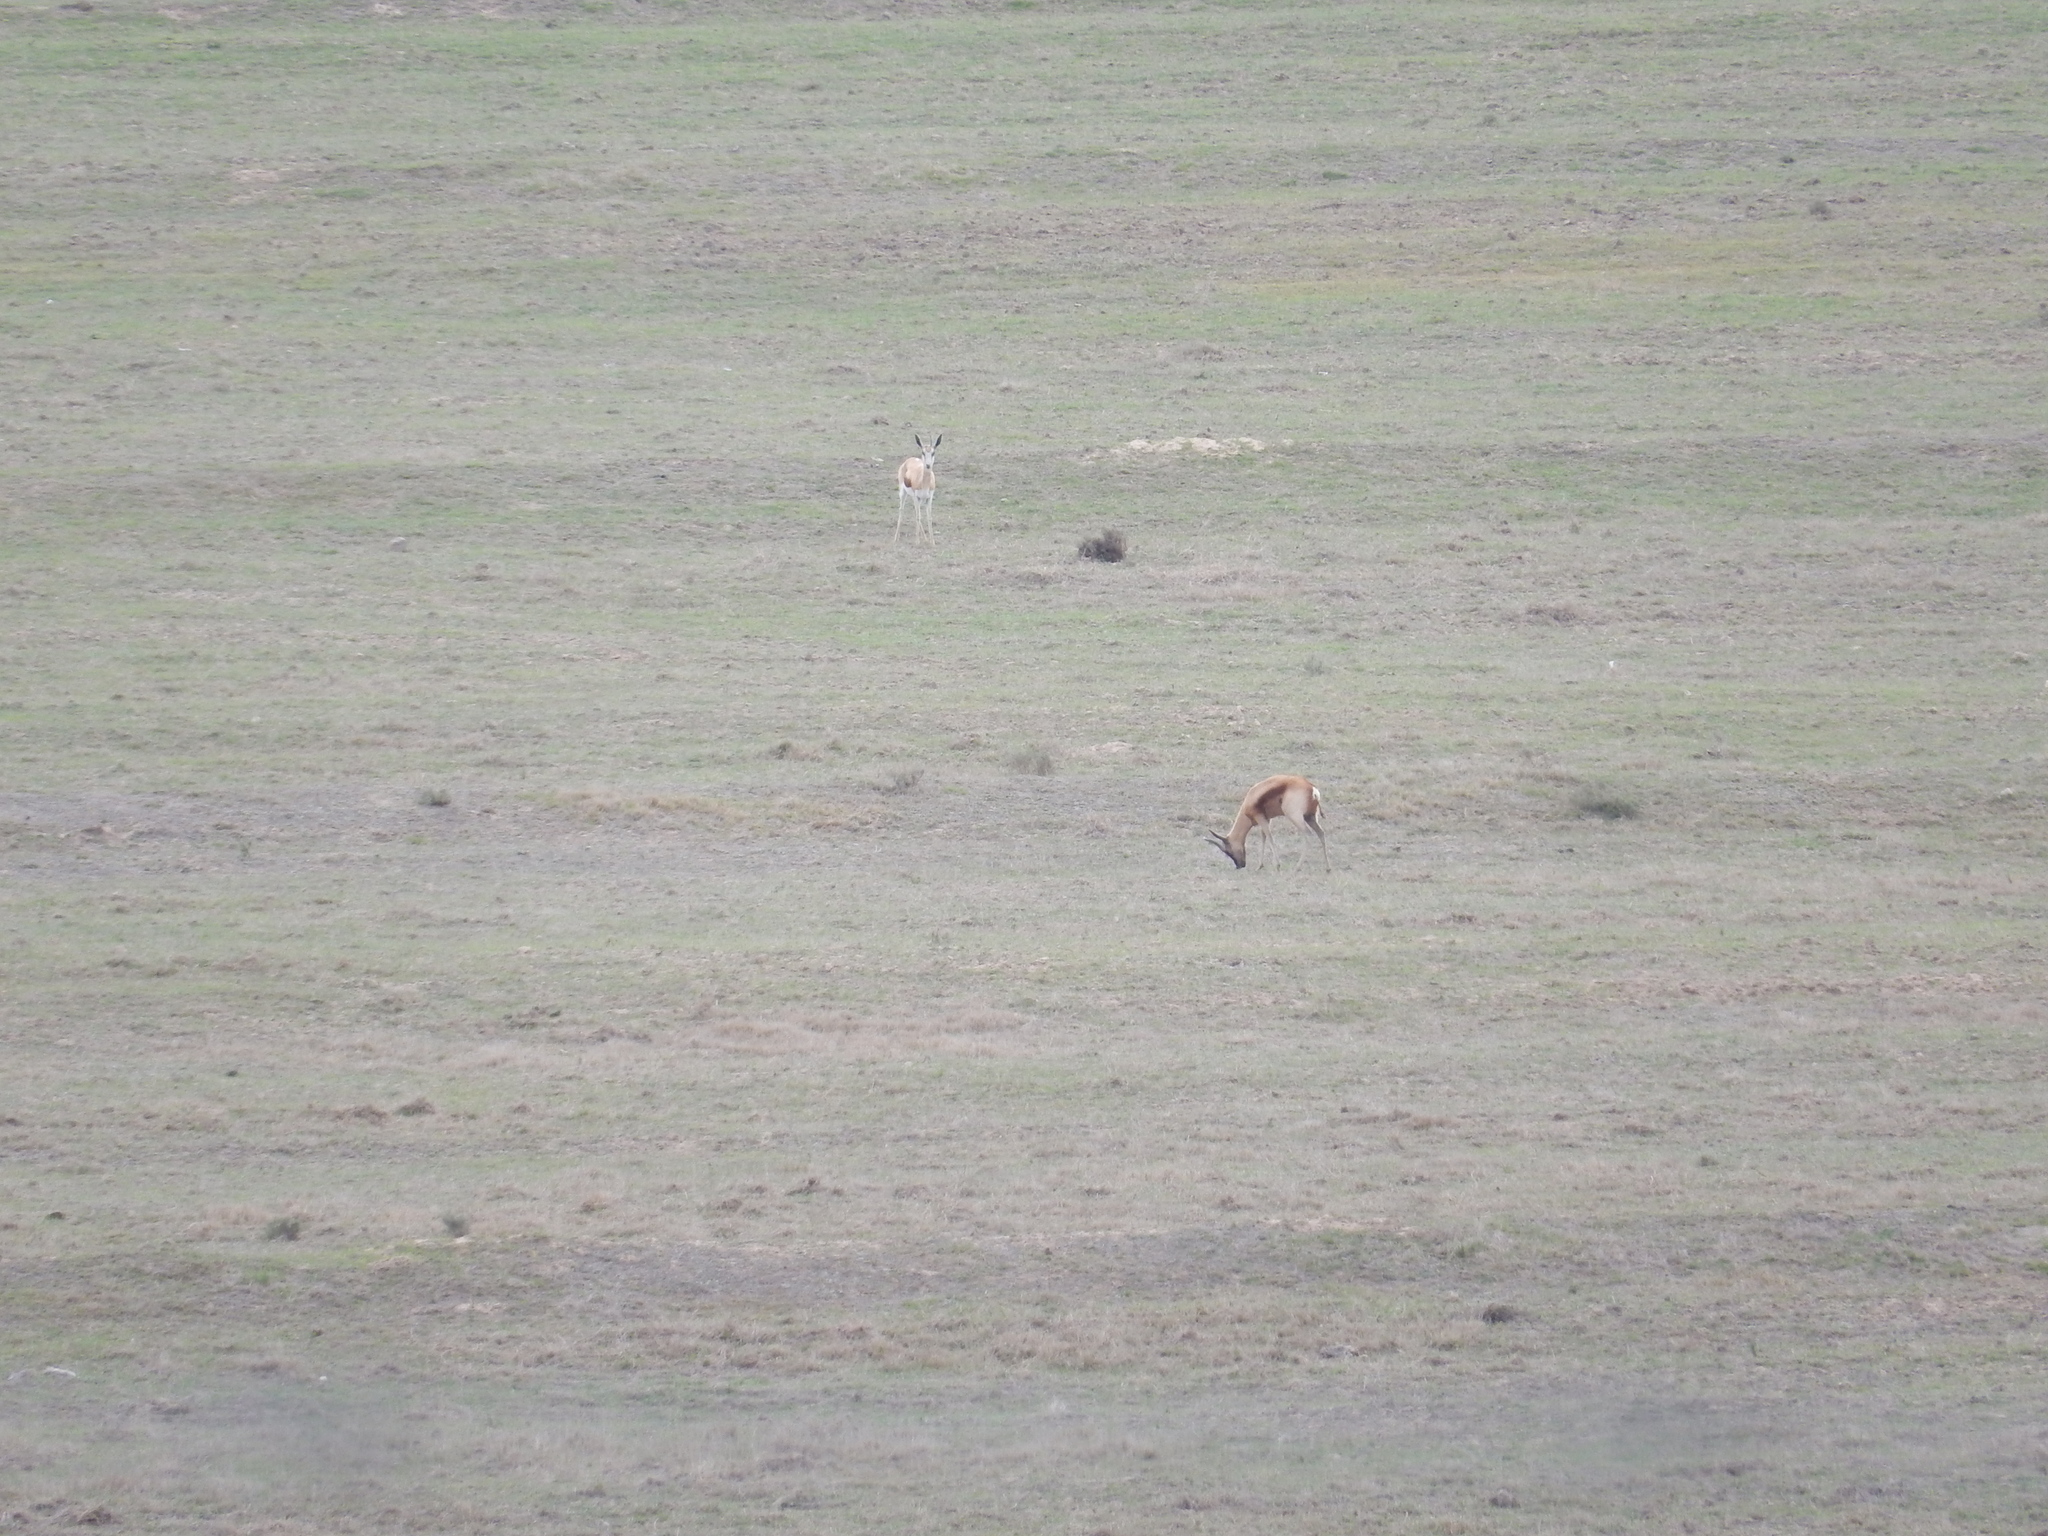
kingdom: Animalia
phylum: Chordata
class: Mammalia
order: Artiodactyla
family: Bovidae
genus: Antidorcas
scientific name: Antidorcas marsupialis
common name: Springbok
